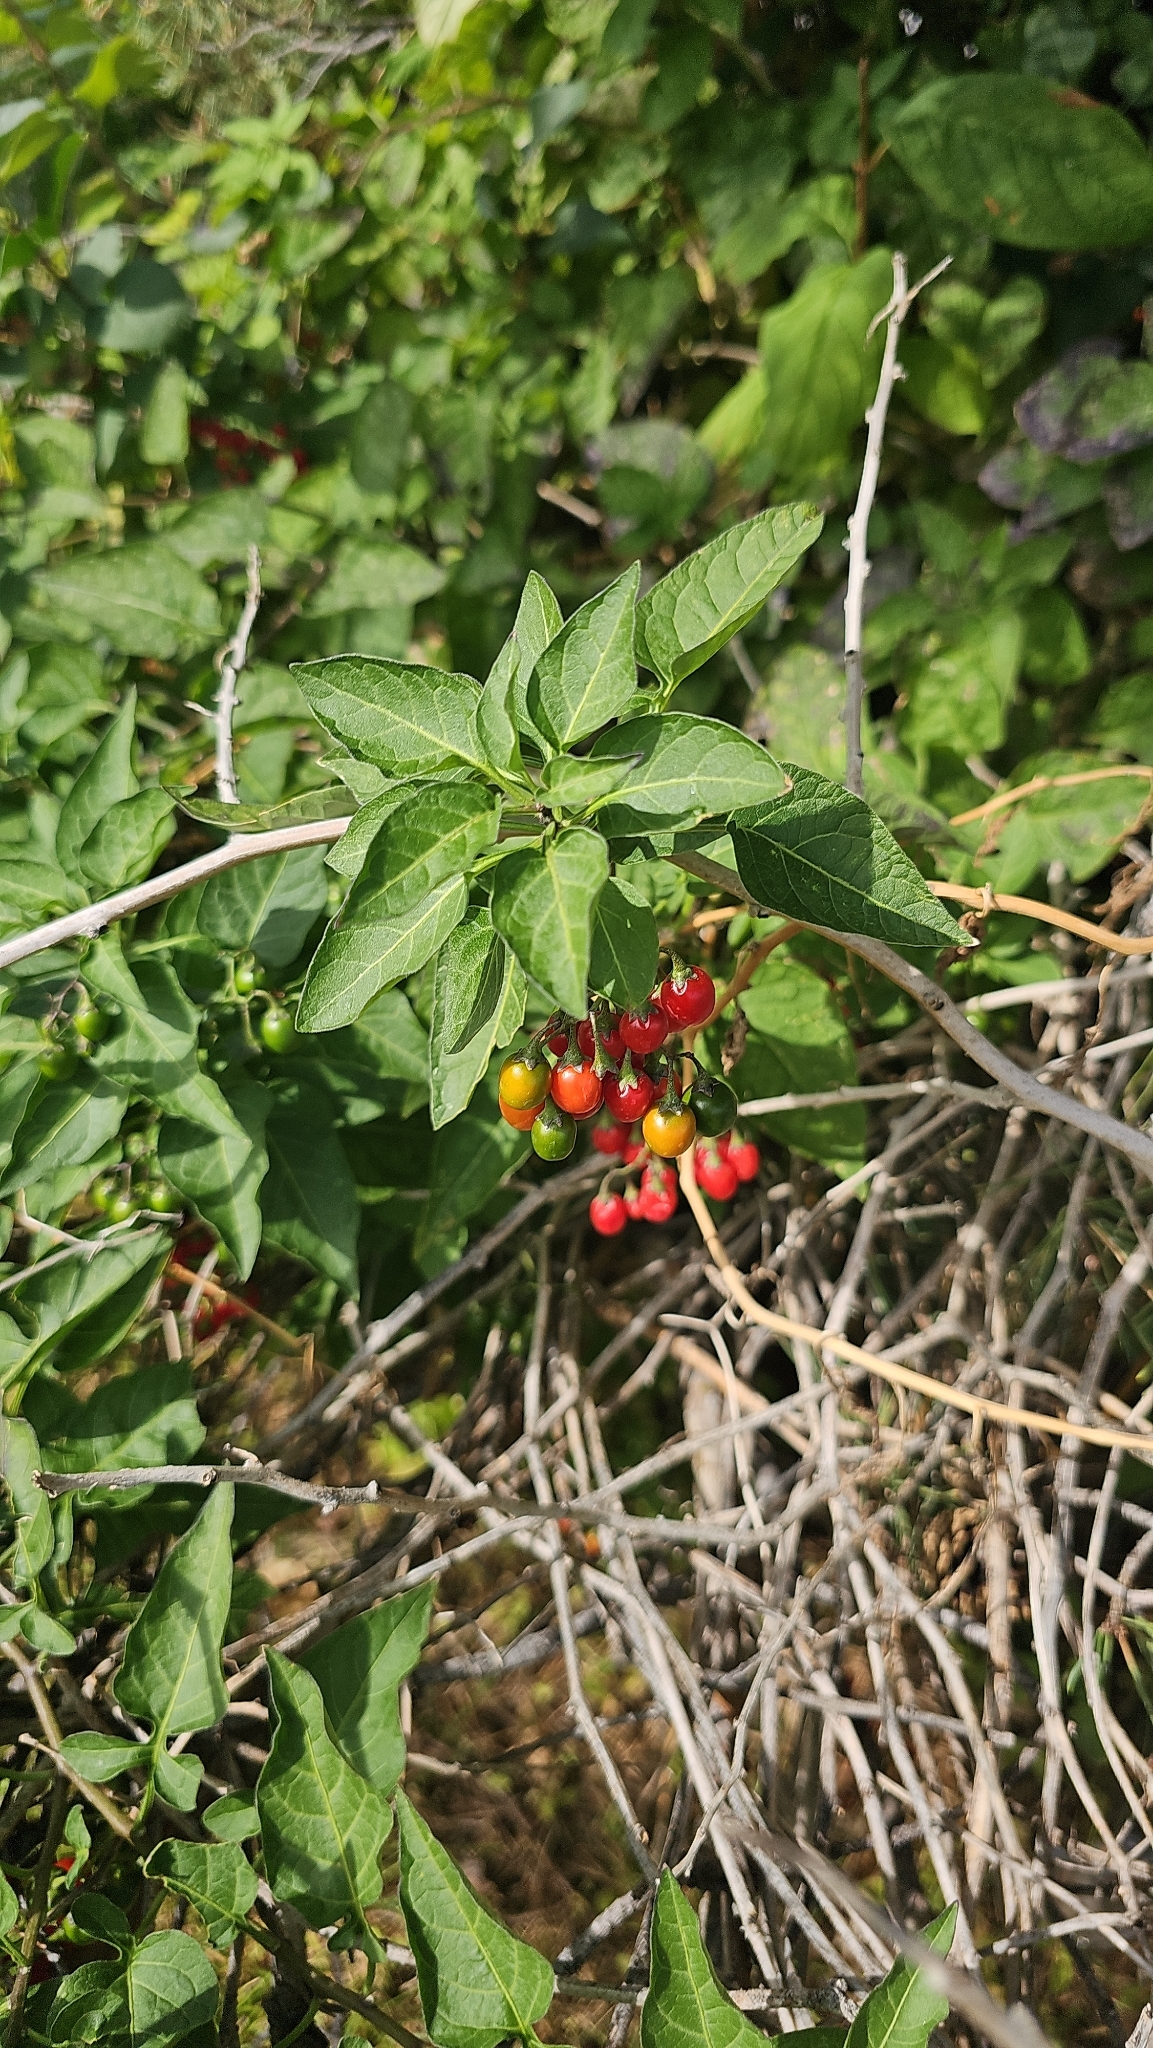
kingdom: Plantae
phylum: Tracheophyta
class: Magnoliopsida
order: Solanales
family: Solanaceae
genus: Solanum
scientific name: Solanum dulcamara
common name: Climbing nightshade
